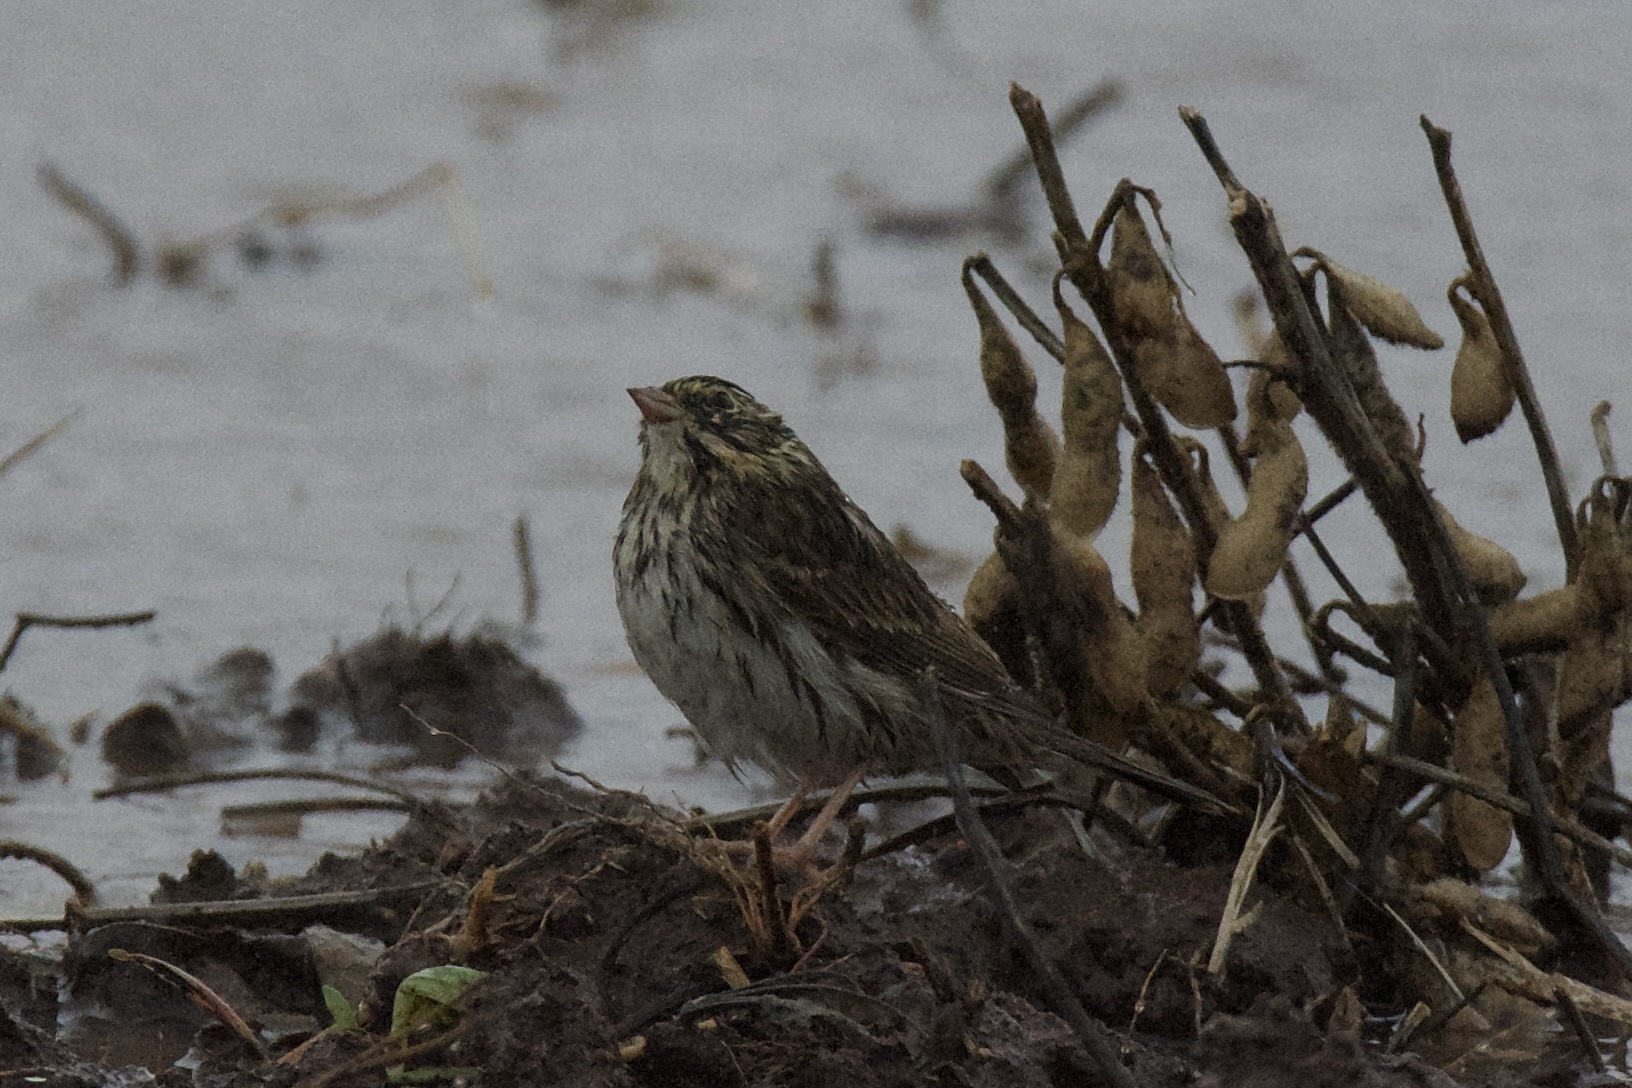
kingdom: Animalia
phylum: Chordata
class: Aves
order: Passeriformes
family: Passerellidae
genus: Passerculus
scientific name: Passerculus sandwichensis
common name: Savannah sparrow
